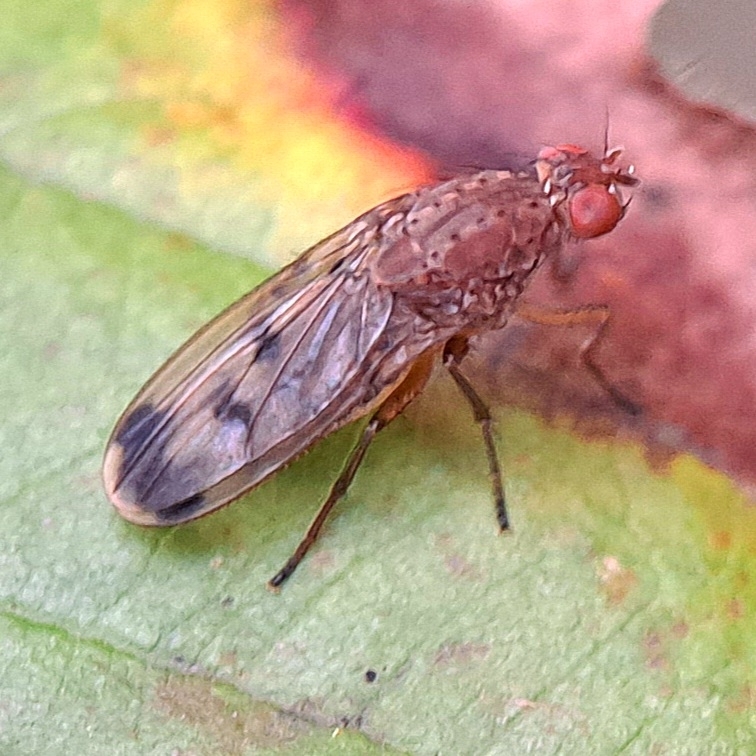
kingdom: Animalia
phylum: Arthropoda
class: Insecta
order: Diptera
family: Heleomyzidae
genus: Suillia
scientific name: Suillia variegata
